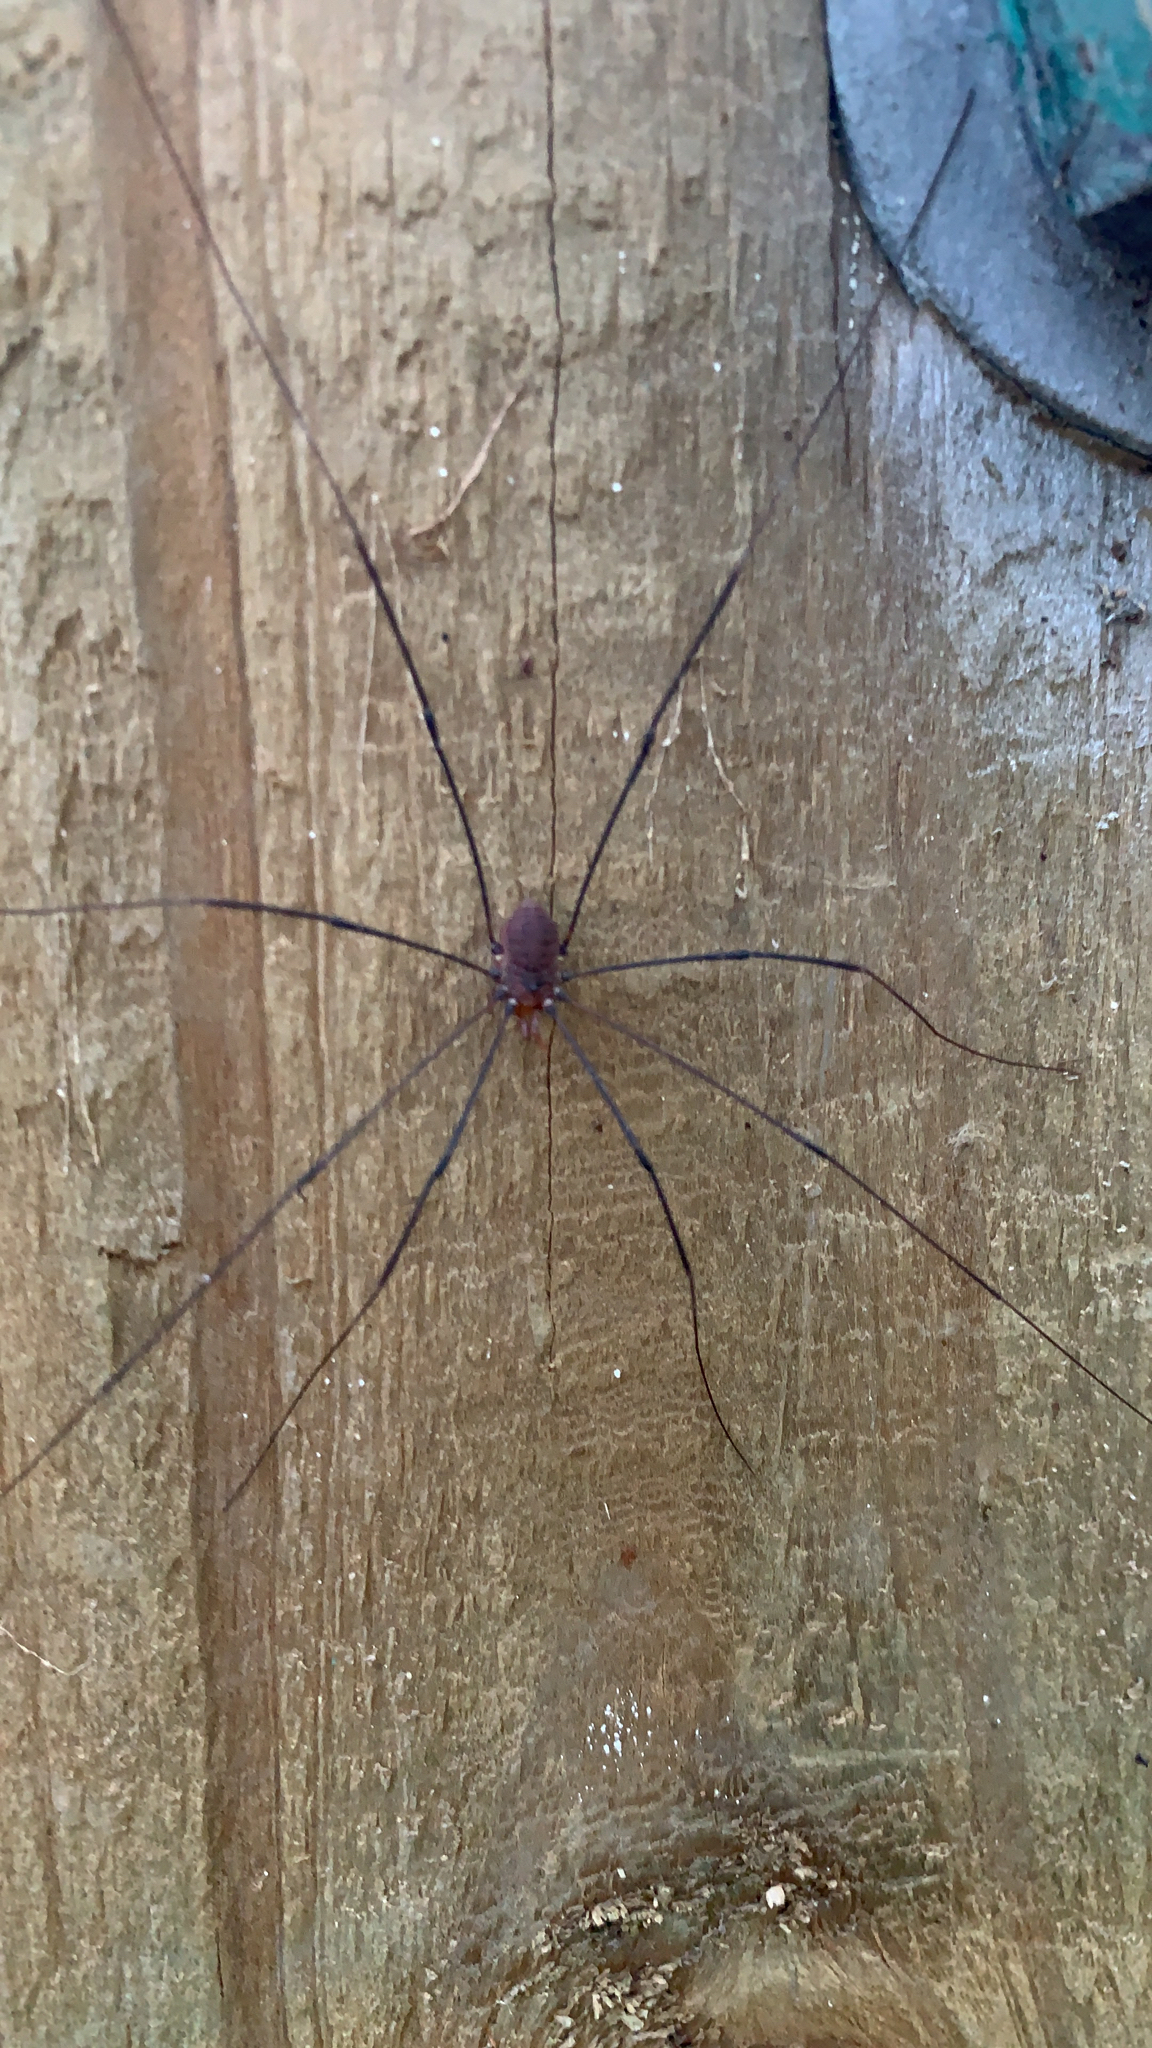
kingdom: Animalia
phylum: Arthropoda
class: Arachnida
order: Opiliones
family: Sclerosomatidae
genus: Leiobunum
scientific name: Leiobunum vittatum
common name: Eastern harvestman
